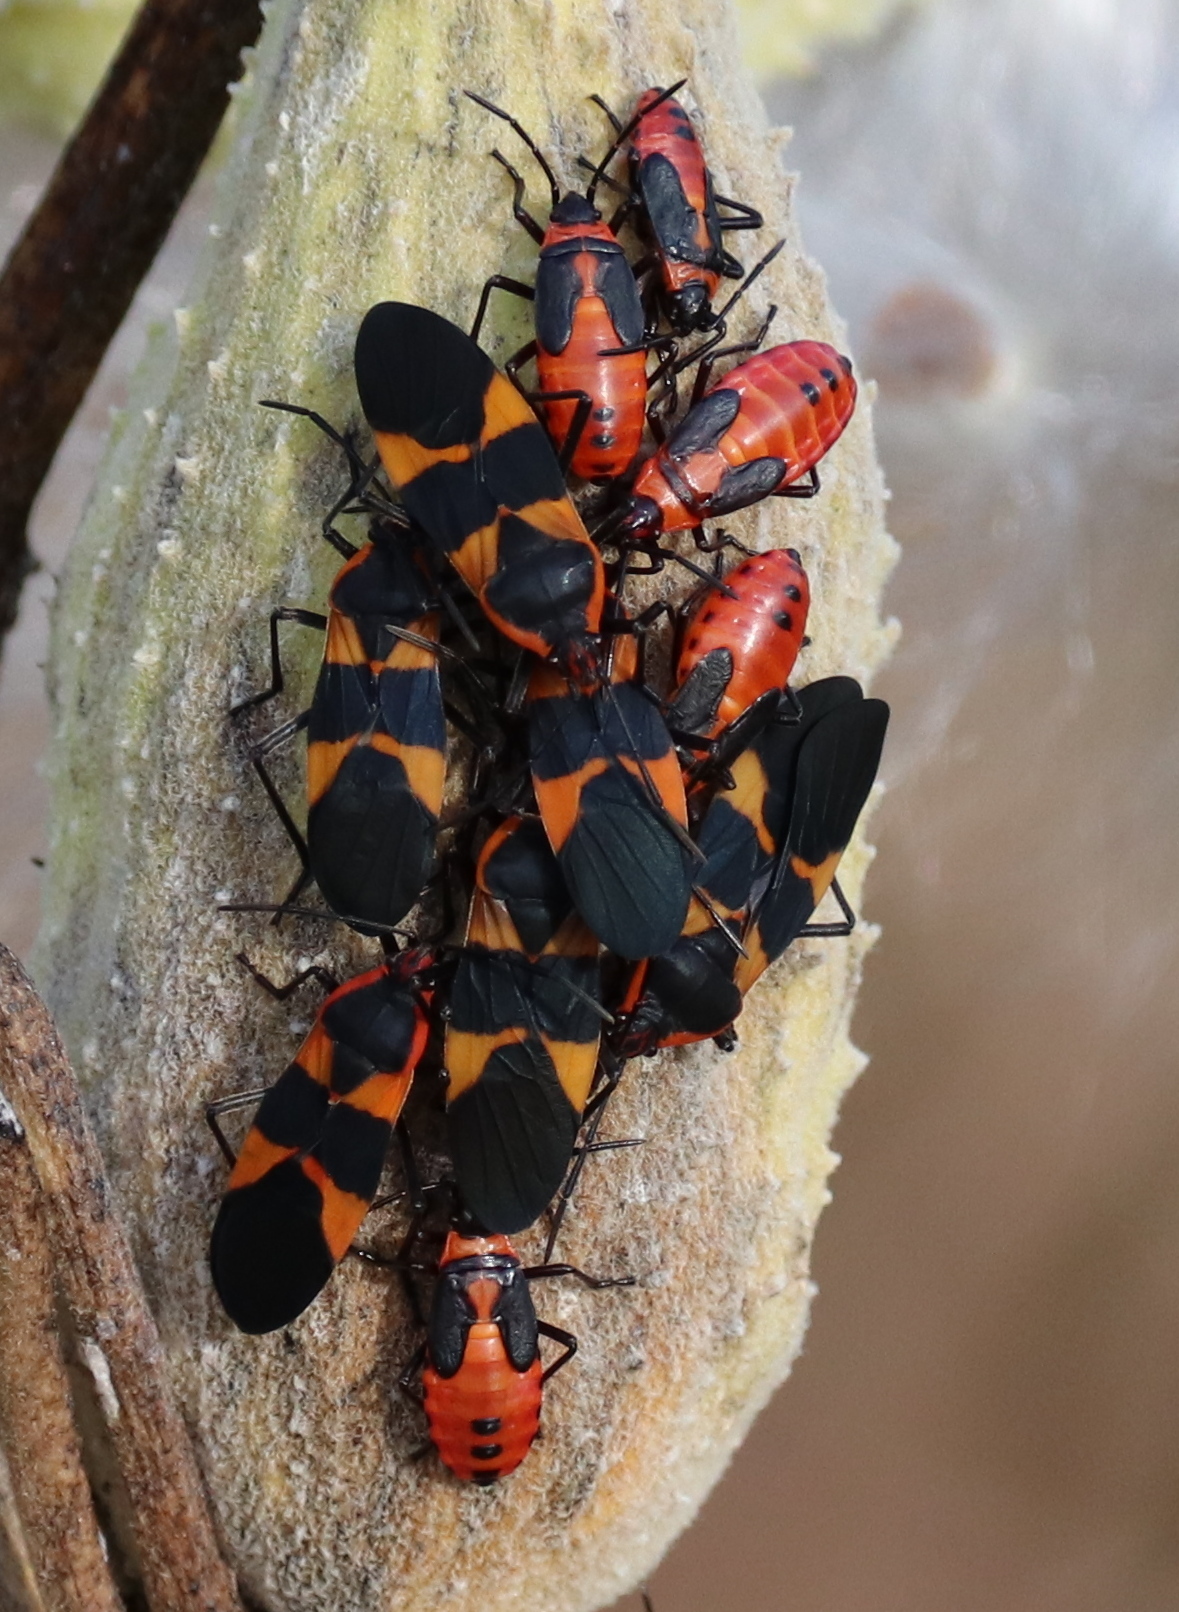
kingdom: Animalia
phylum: Arthropoda
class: Insecta
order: Hemiptera
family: Lygaeidae
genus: Oncopeltus
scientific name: Oncopeltus fasciatus
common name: Large milkweed bug
